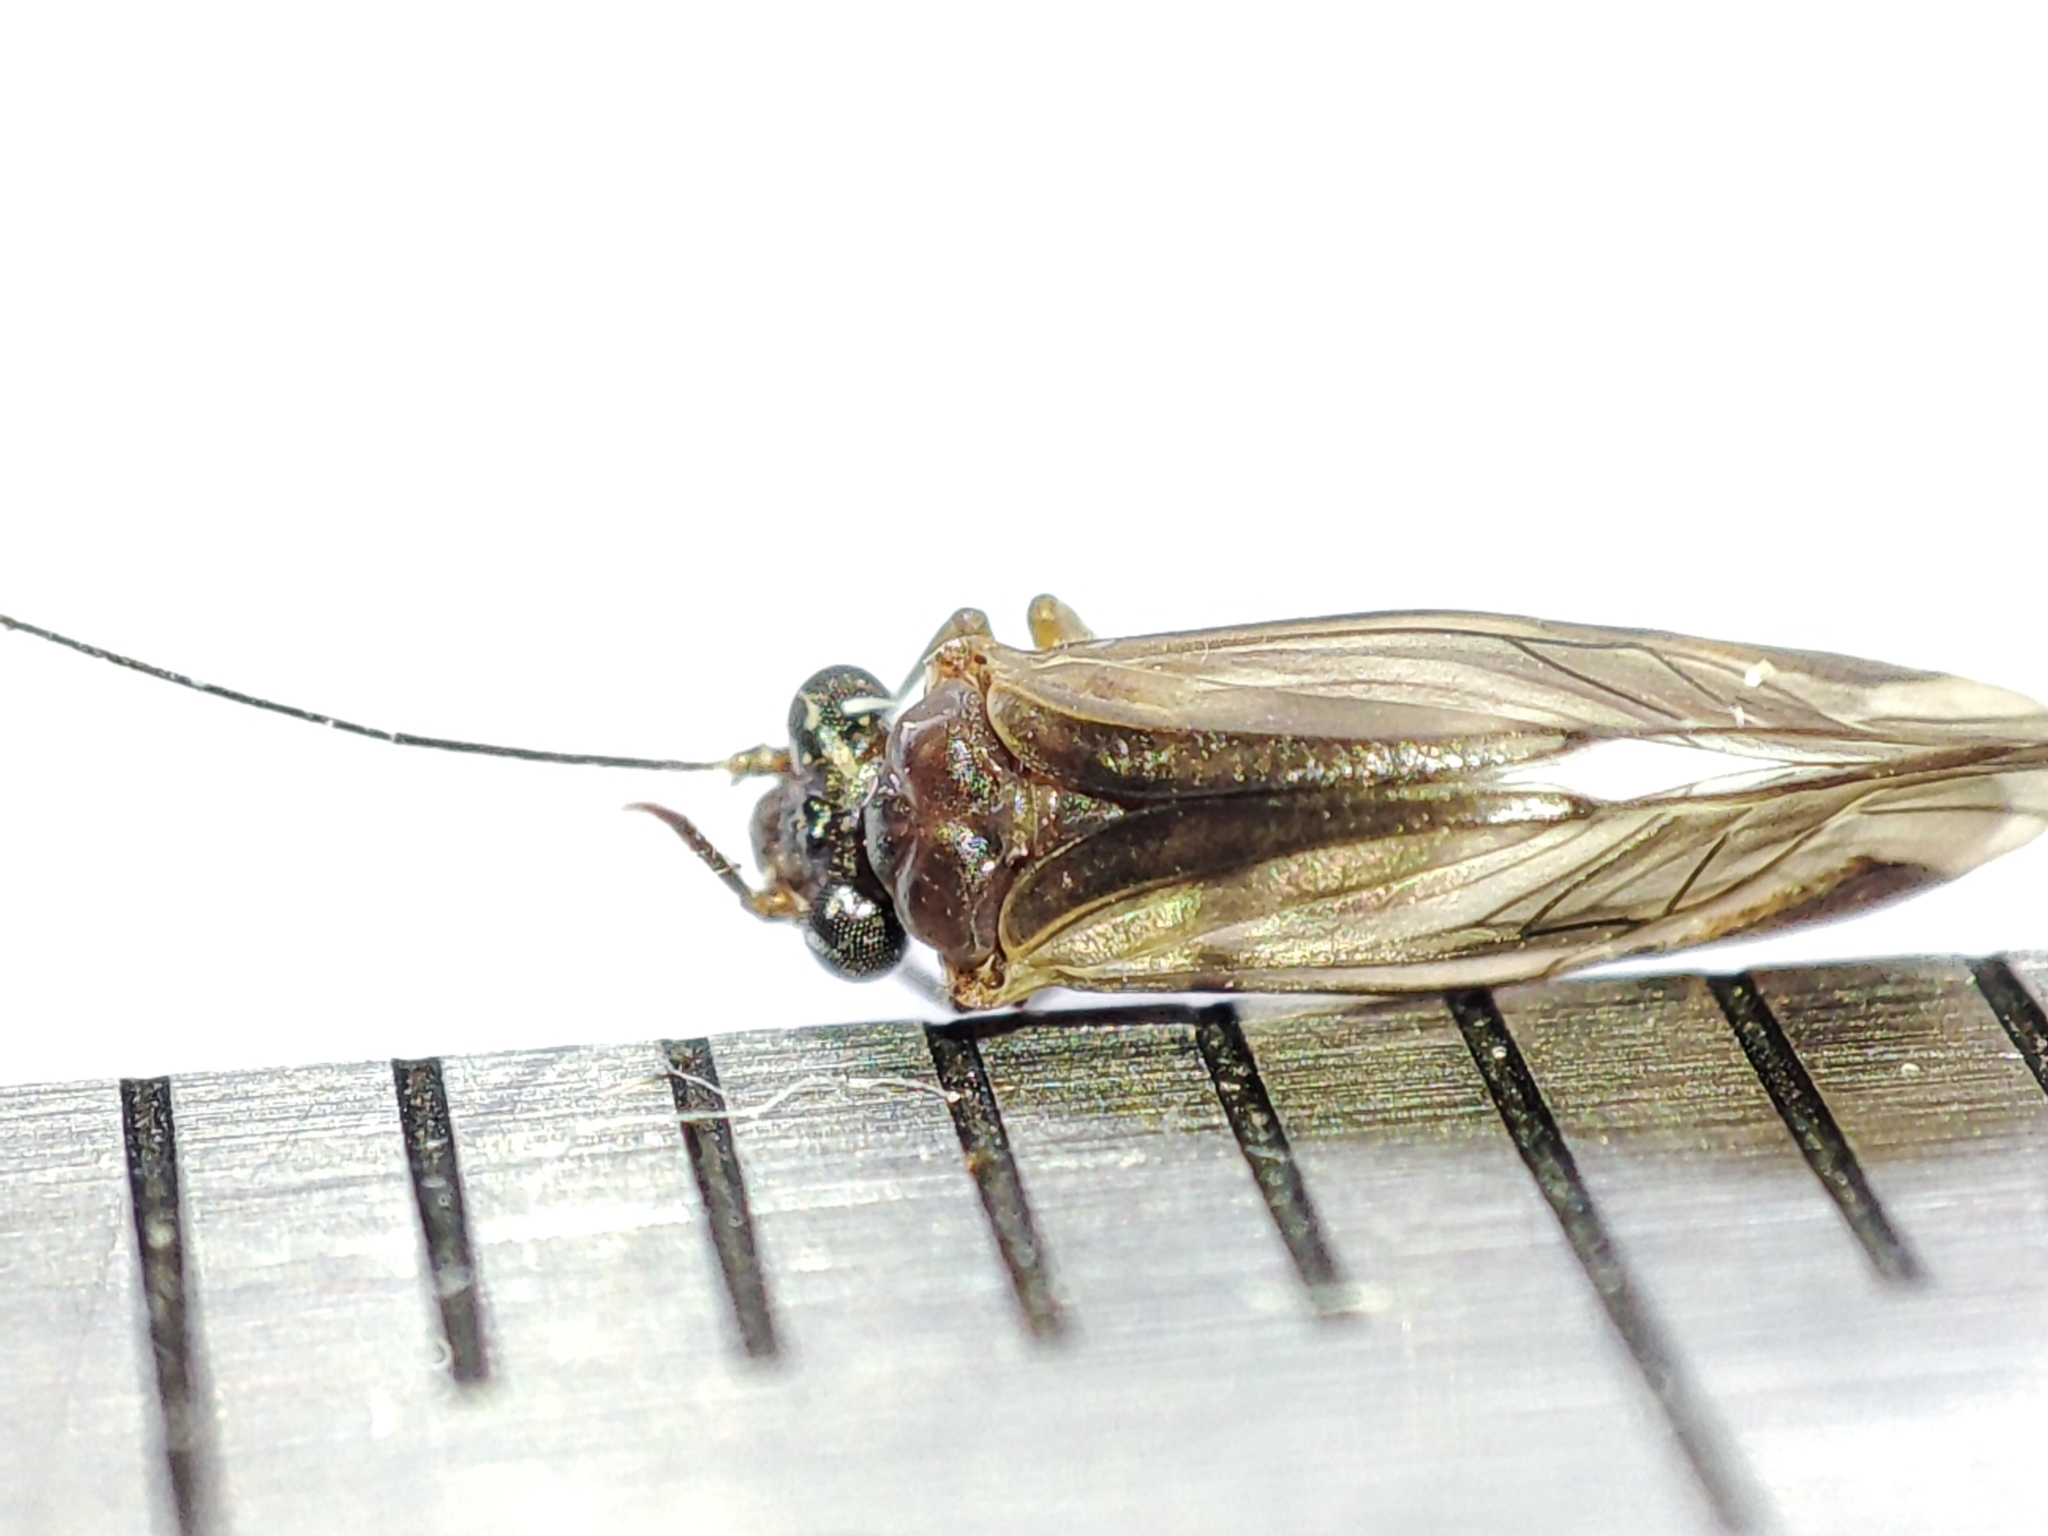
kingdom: Animalia
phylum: Arthropoda
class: Insecta
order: Psocodea
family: Psocidae
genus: Metylophorus
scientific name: Metylophorus nebulosus
